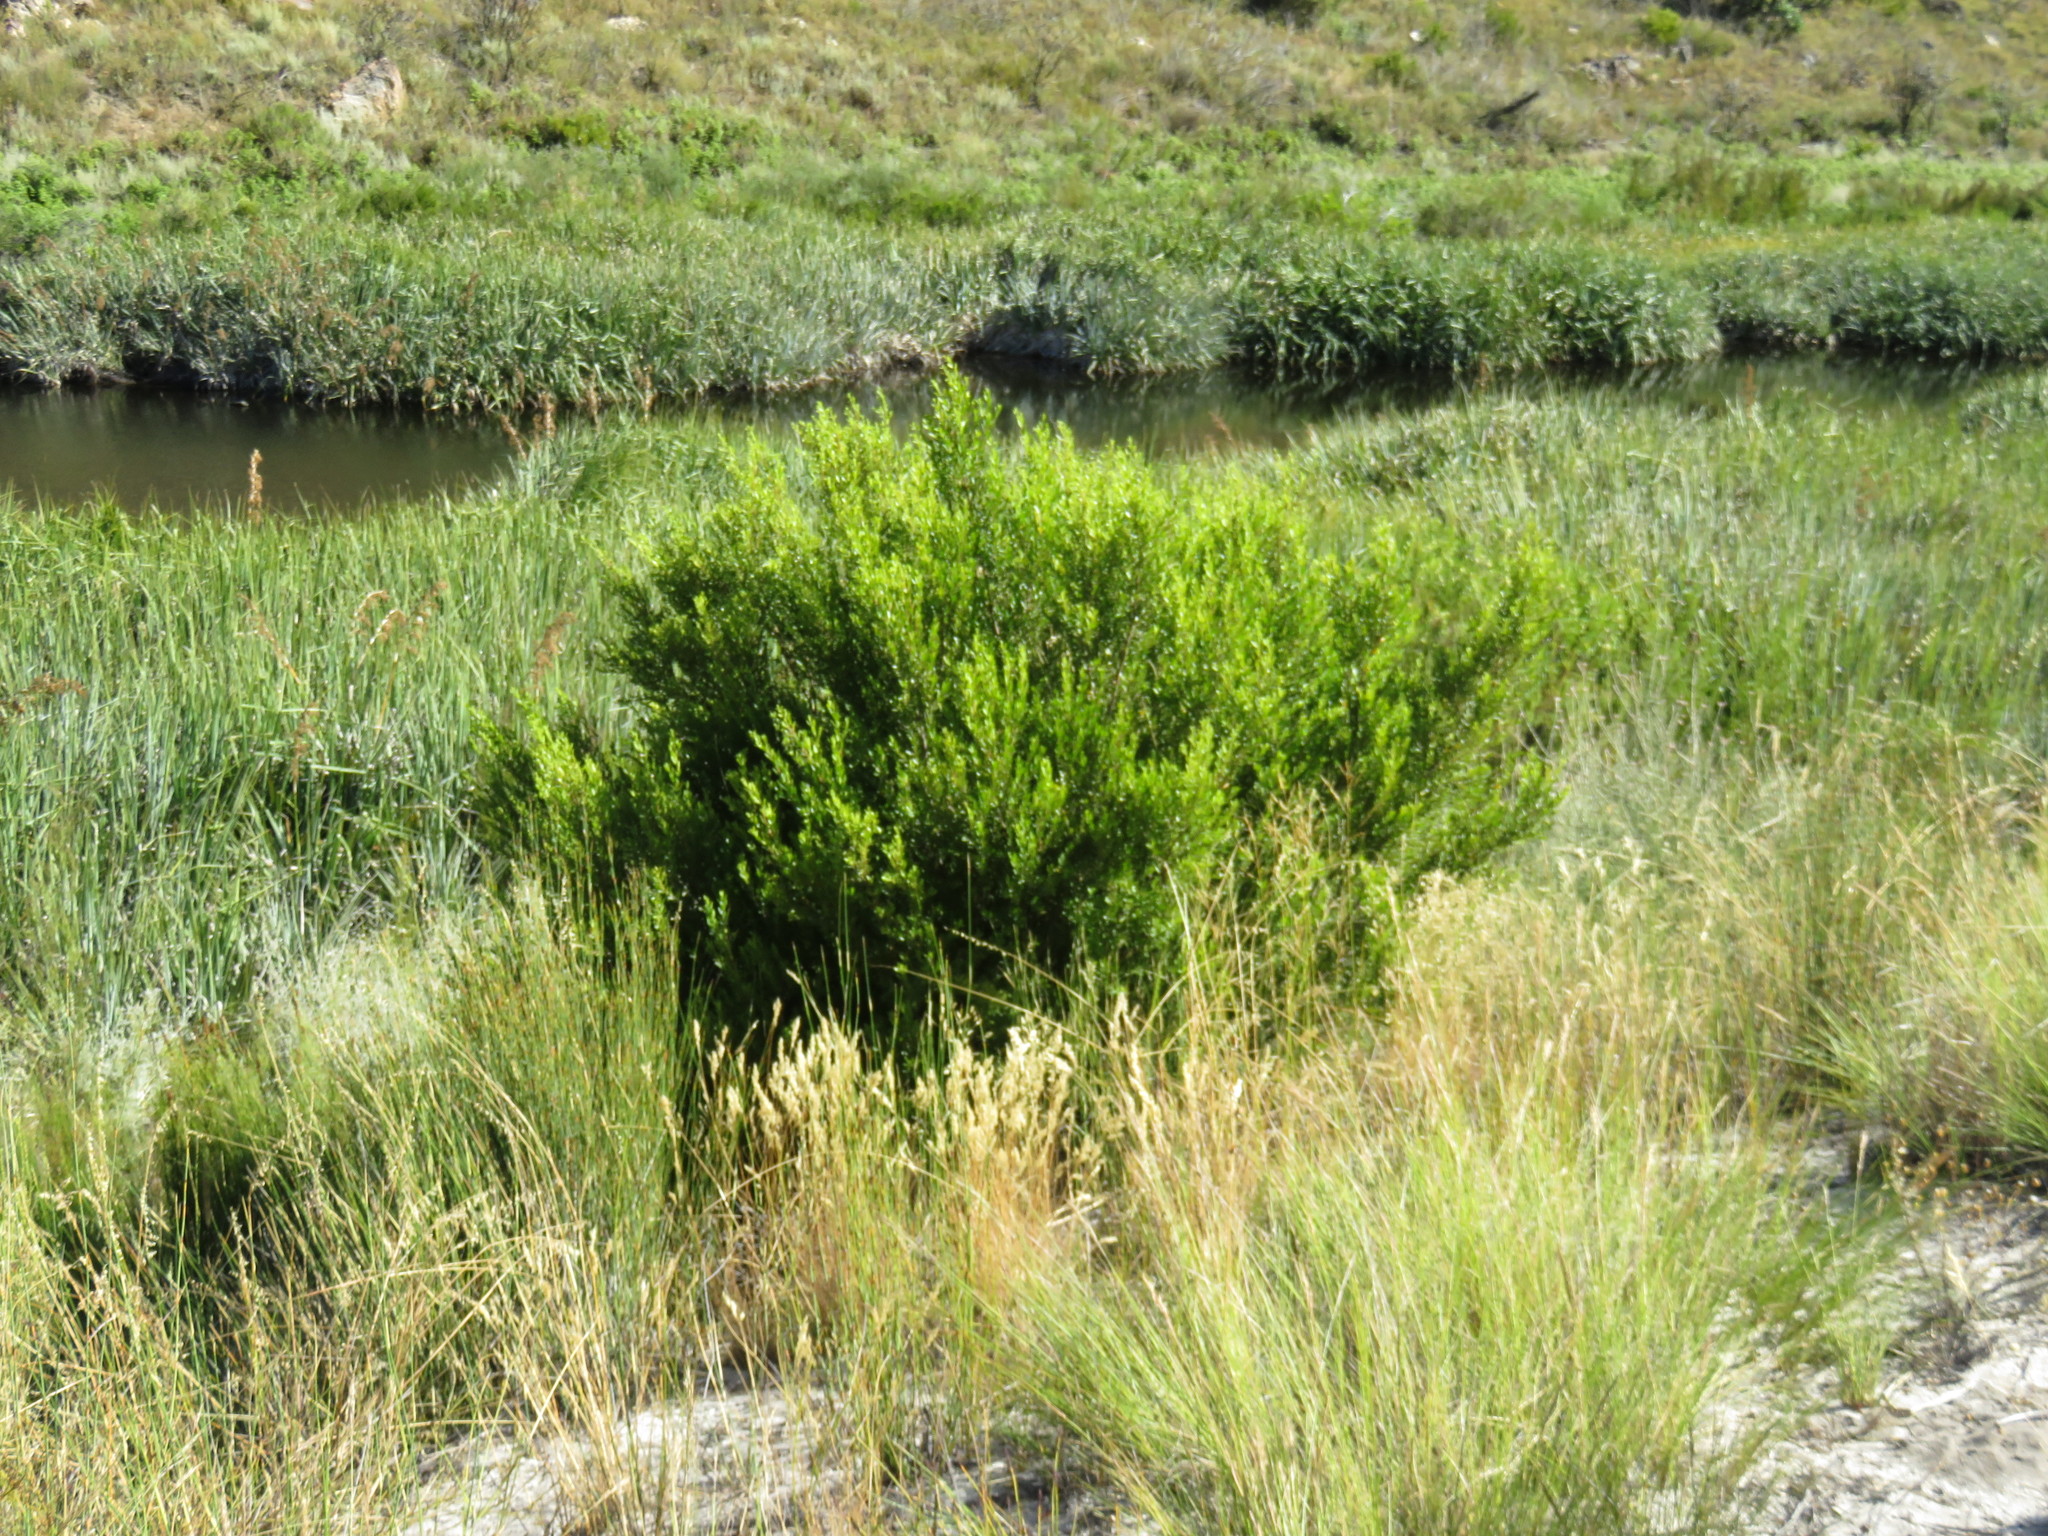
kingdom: Plantae
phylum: Tracheophyta
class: Magnoliopsida
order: Ericales
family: Ebenaceae
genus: Diospyros
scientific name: Diospyros glabra
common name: Fynbos star apple
